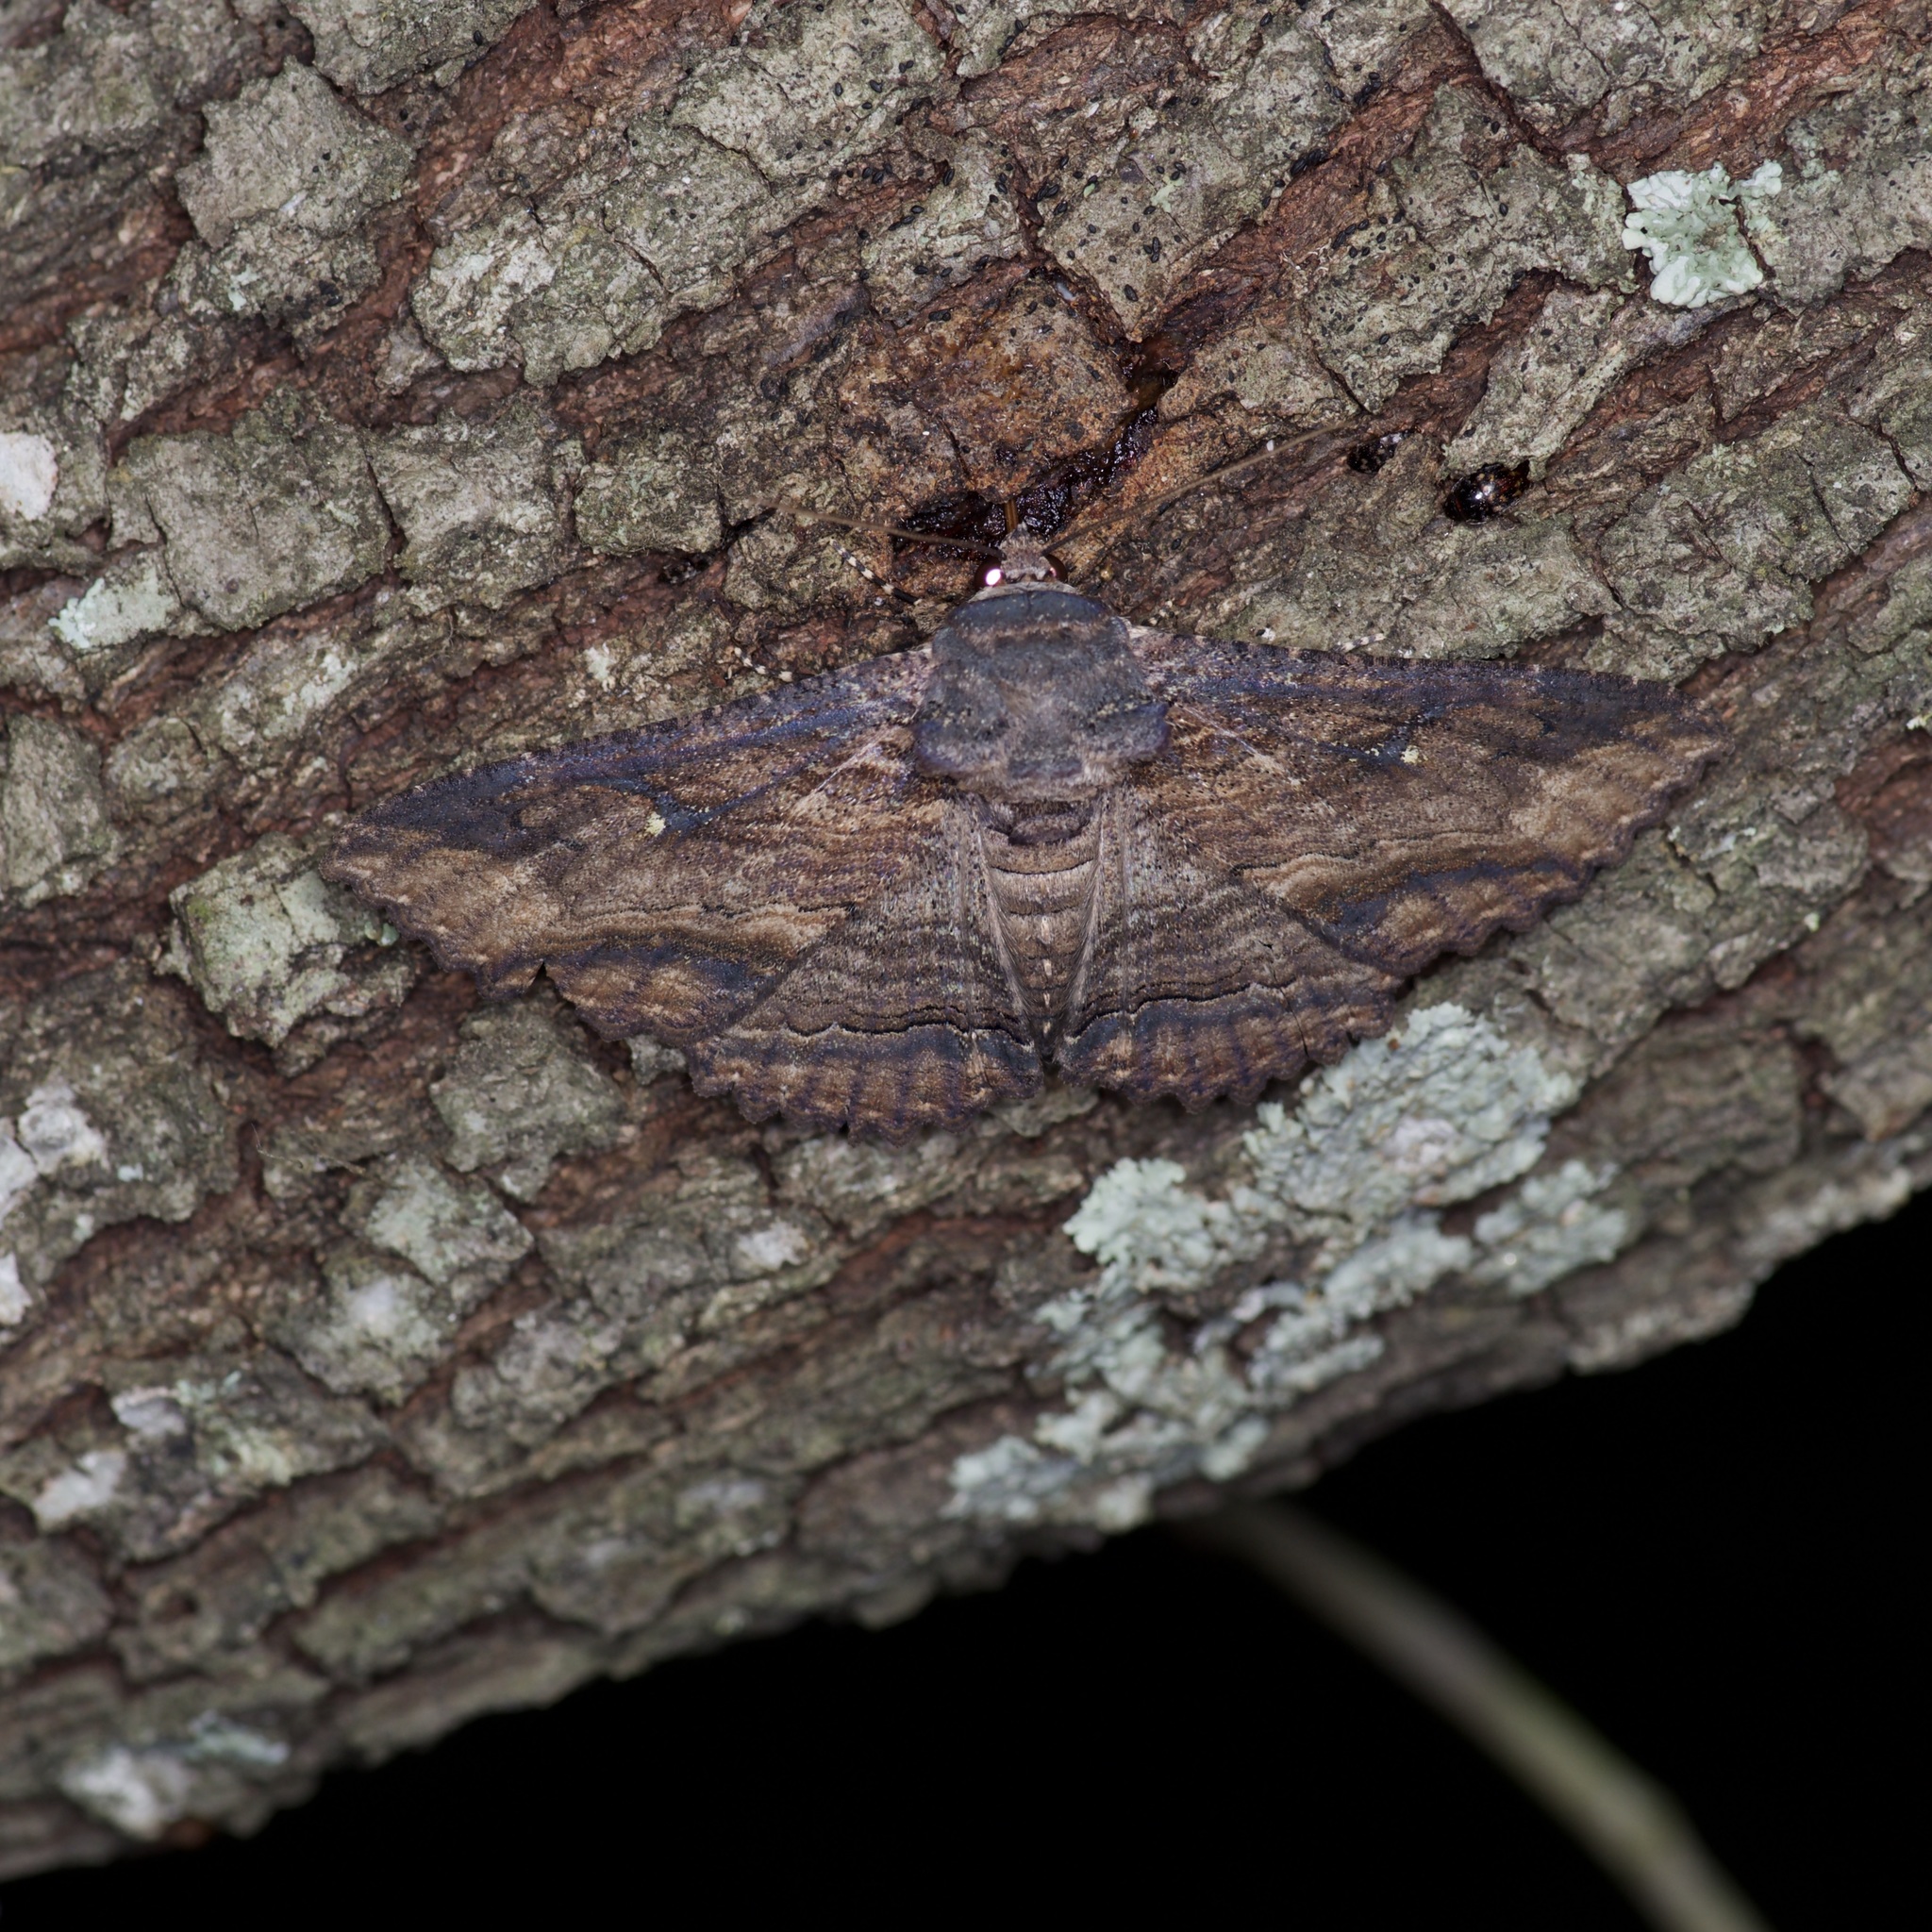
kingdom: Animalia
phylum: Arthropoda
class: Insecta
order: Lepidoptera
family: Erebidae
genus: Zale
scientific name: Zale lunata
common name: Lunate zale moth
